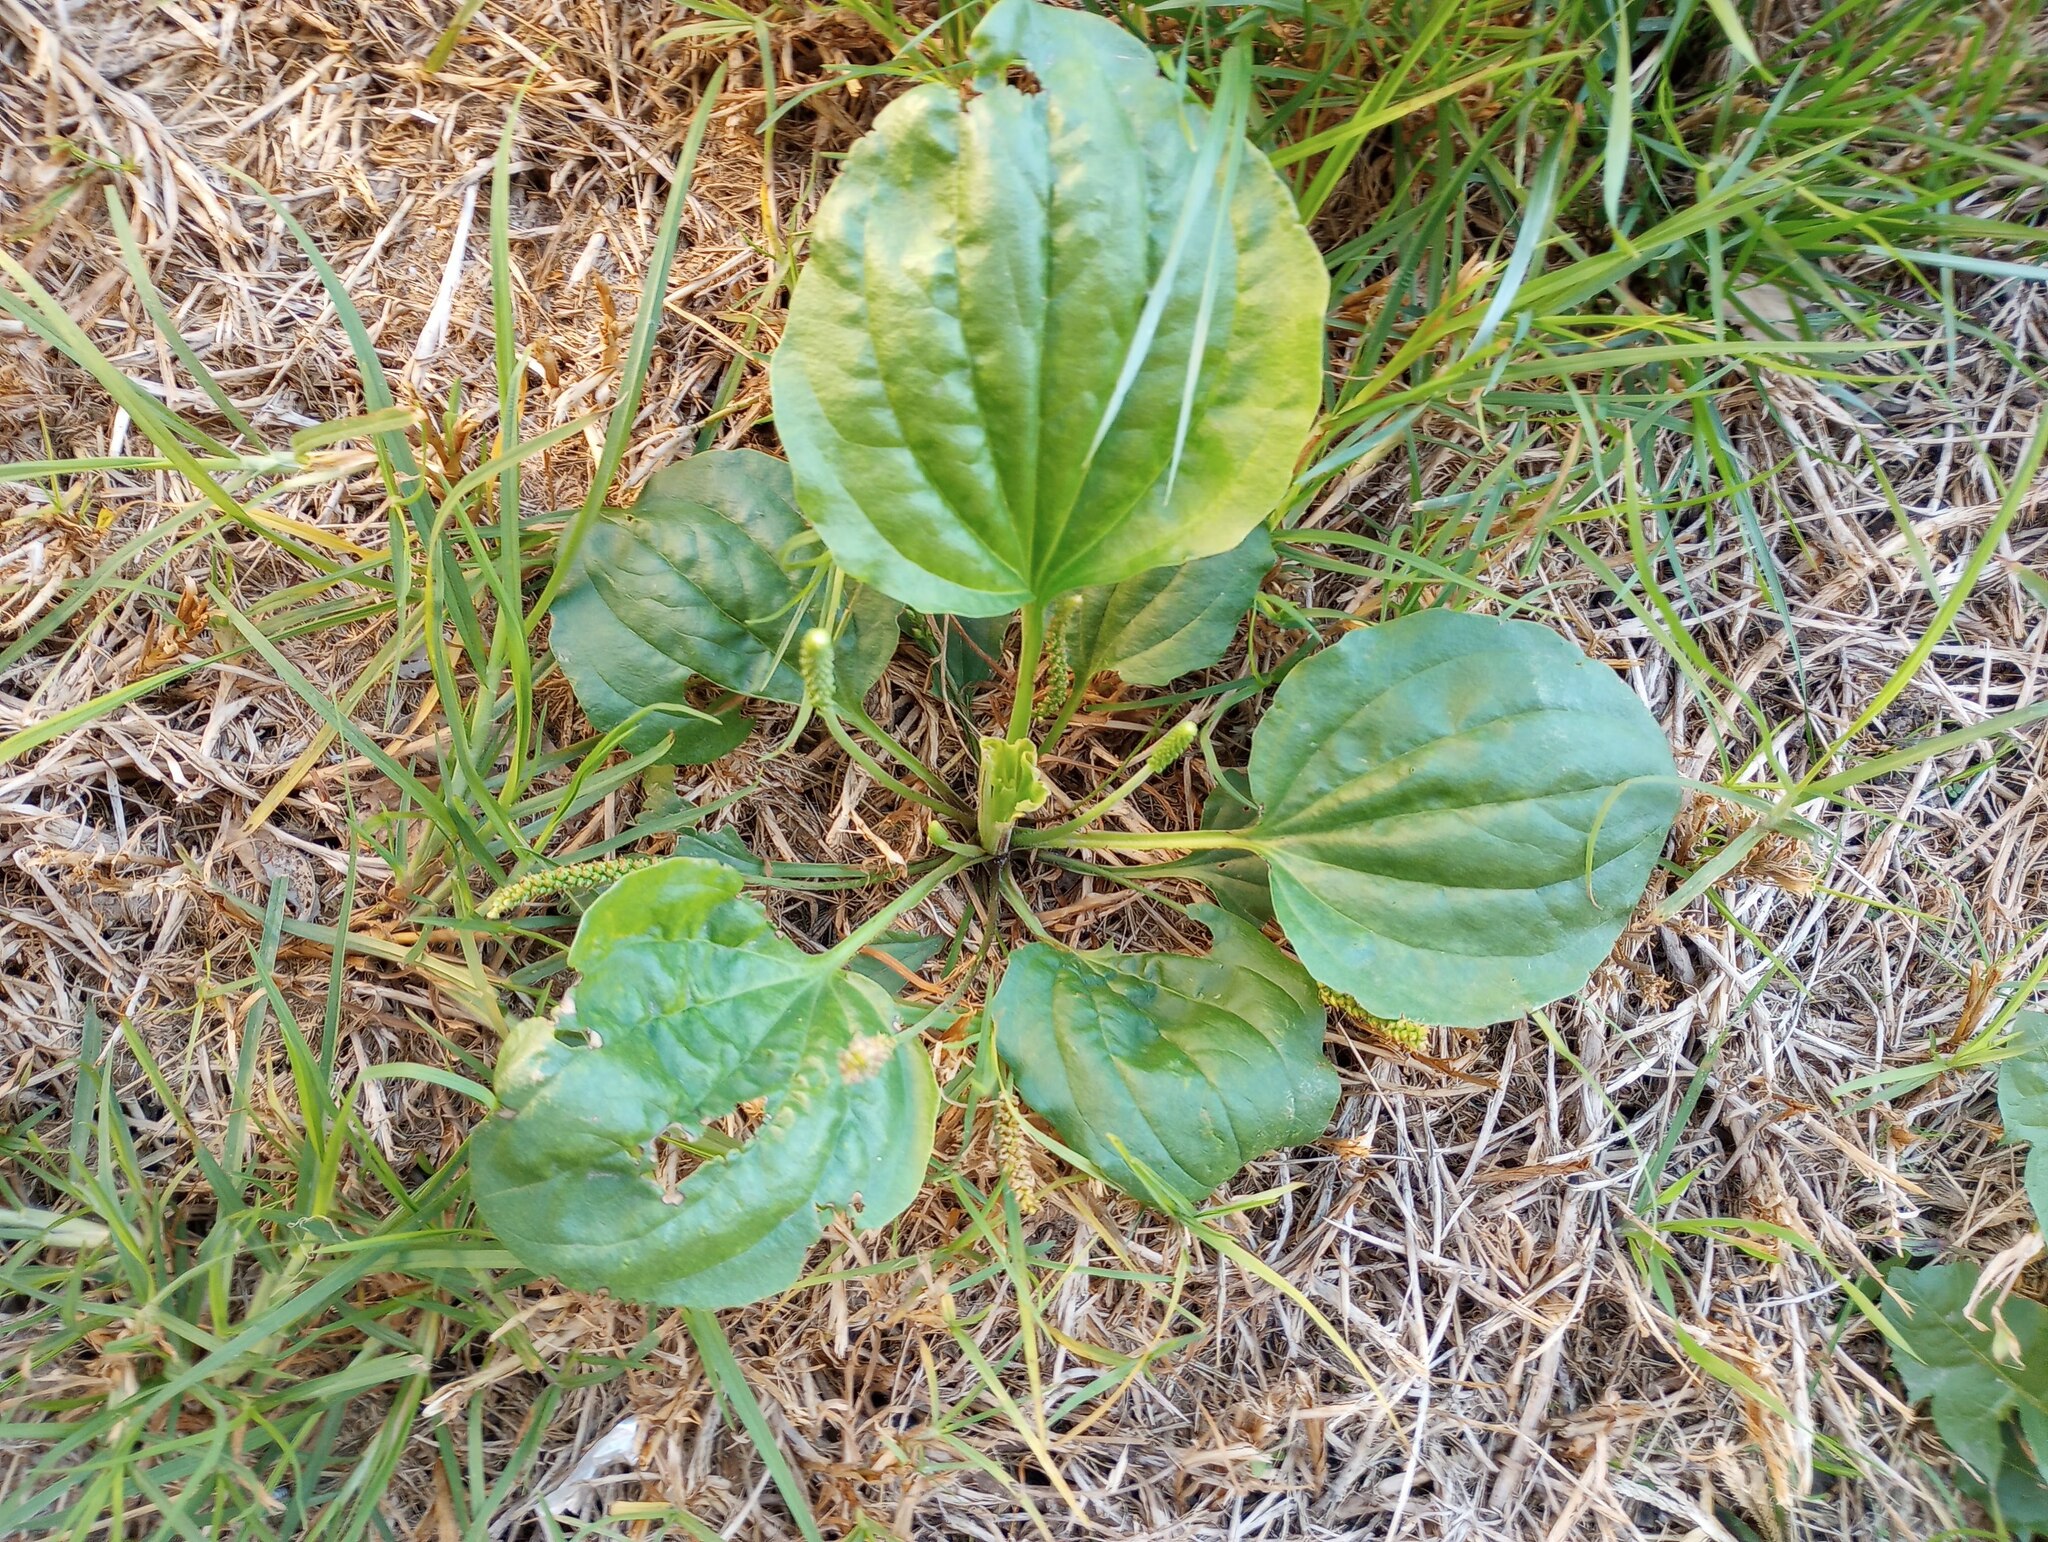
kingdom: Plantae
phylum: Tracheophyta
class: Magnoliopsida
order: Lamiales
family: Plantaginaceae
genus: Plantago
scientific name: Plantago major
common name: Common plantain
